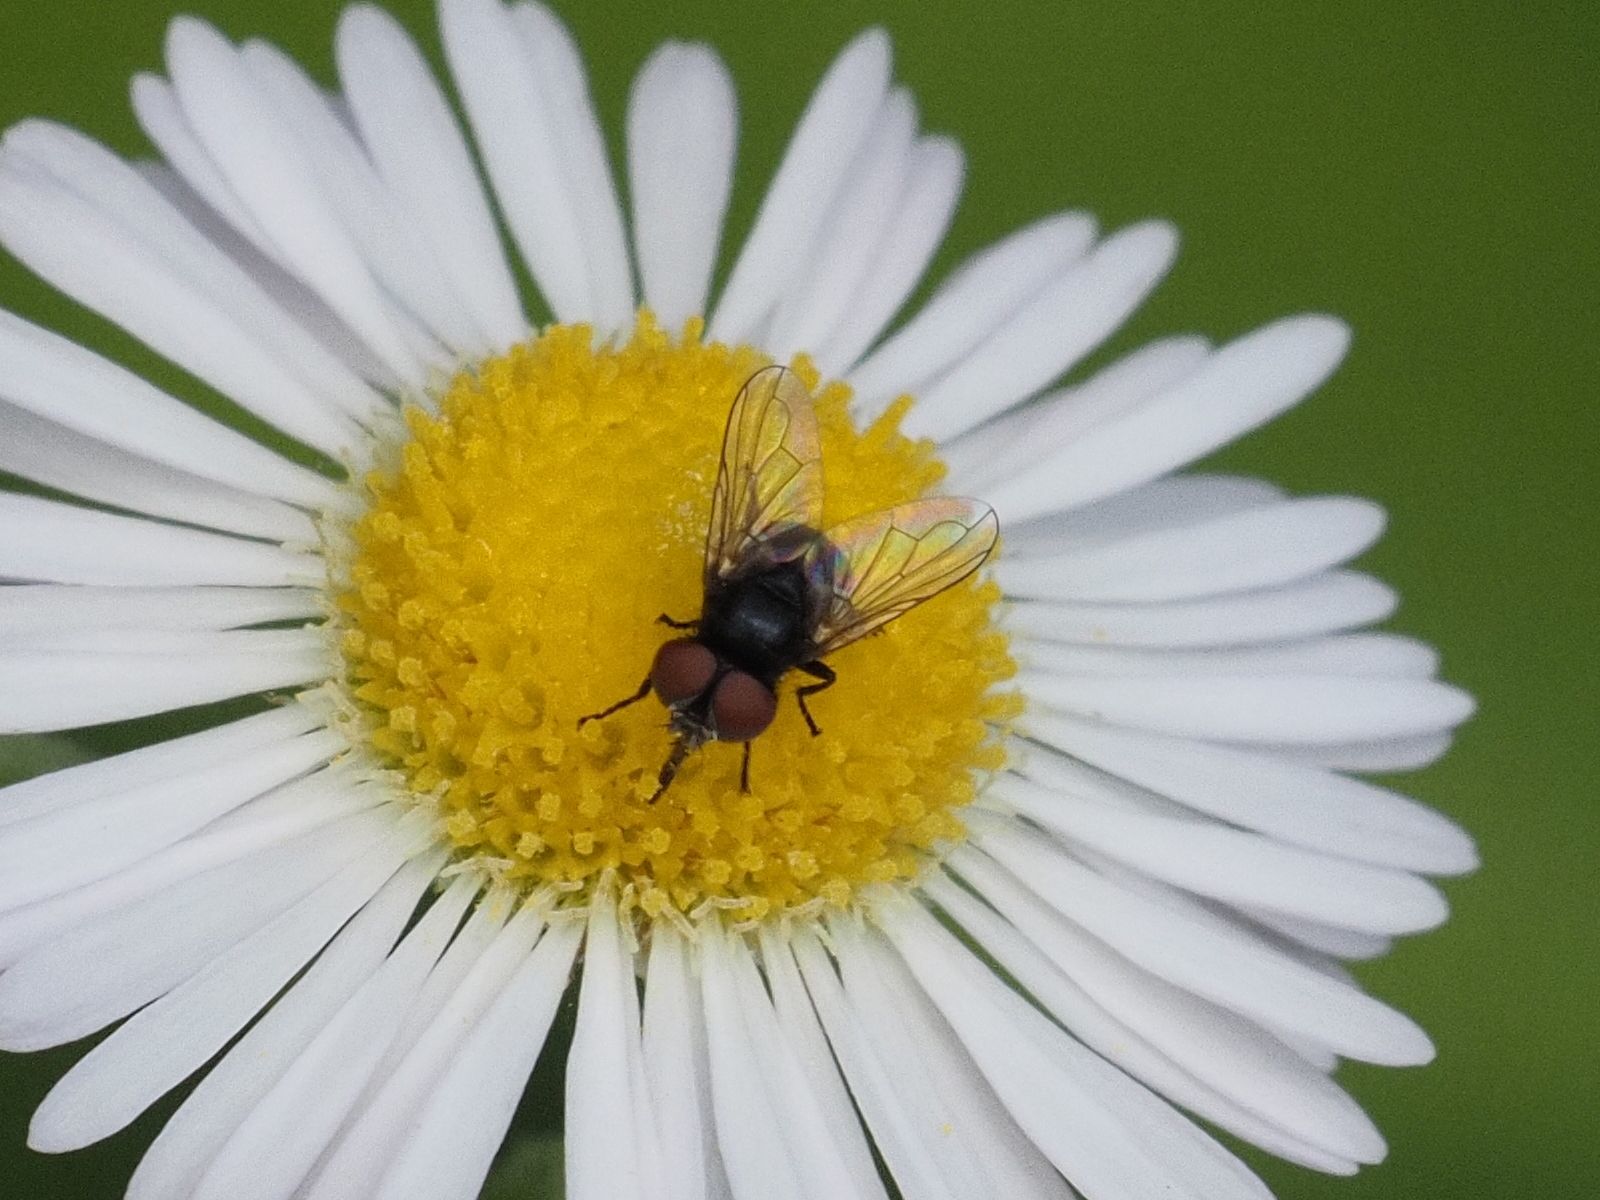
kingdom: Animalia
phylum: Arthropoda
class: Insecta
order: Diptera
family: Tachinidae
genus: Phasia
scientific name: Phasia pusilla
